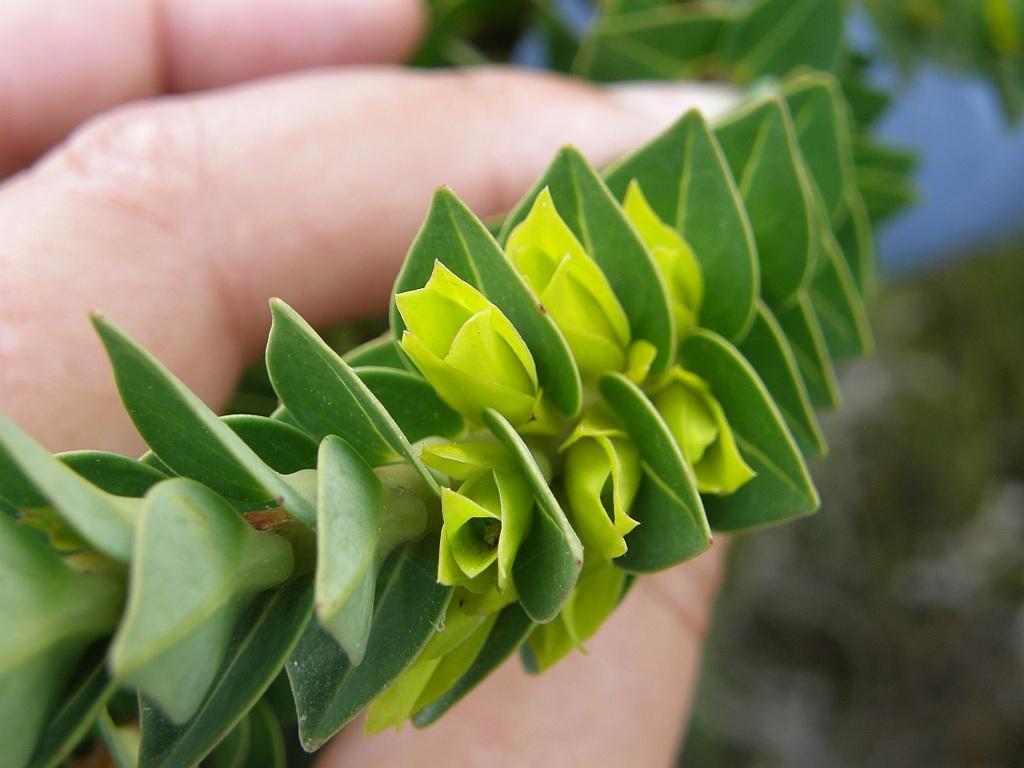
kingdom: Plantae
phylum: Tracheophyta
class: Magnoliopsida
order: Myrtales
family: Penaeaceae
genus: Endonema
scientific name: Endonema lateriflora
